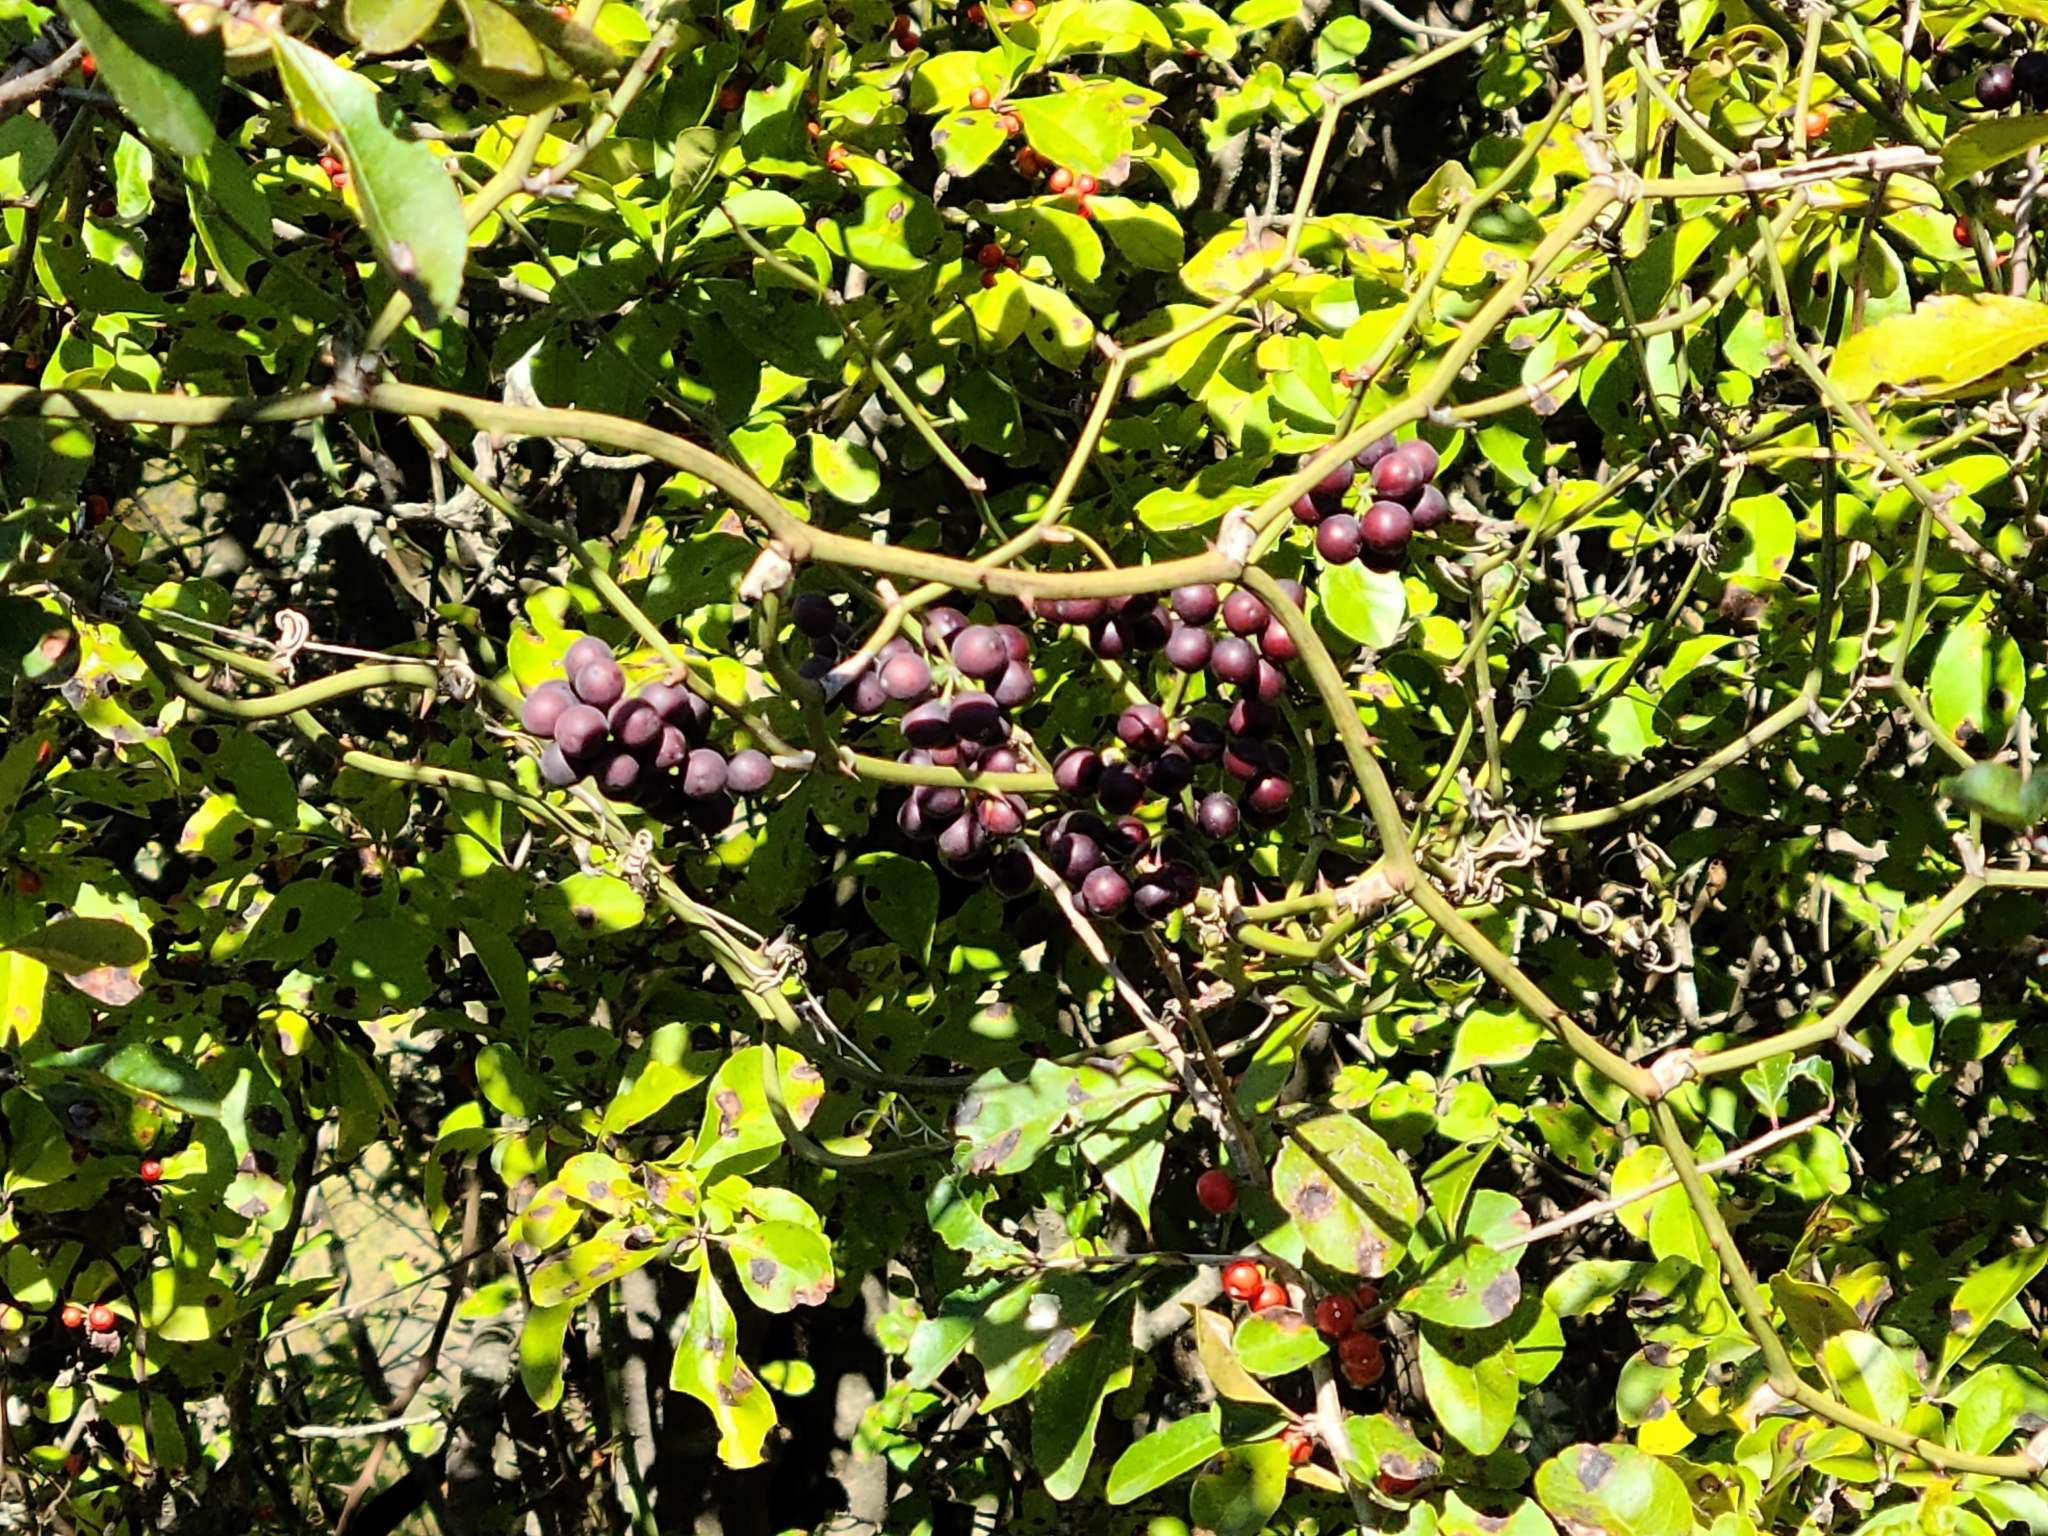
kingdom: Plantae
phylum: Tracheophyta
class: Liliopsida
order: Liliales
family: Smilacaceae
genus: Smilax
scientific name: Smilax bona-nox
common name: Catbrier
